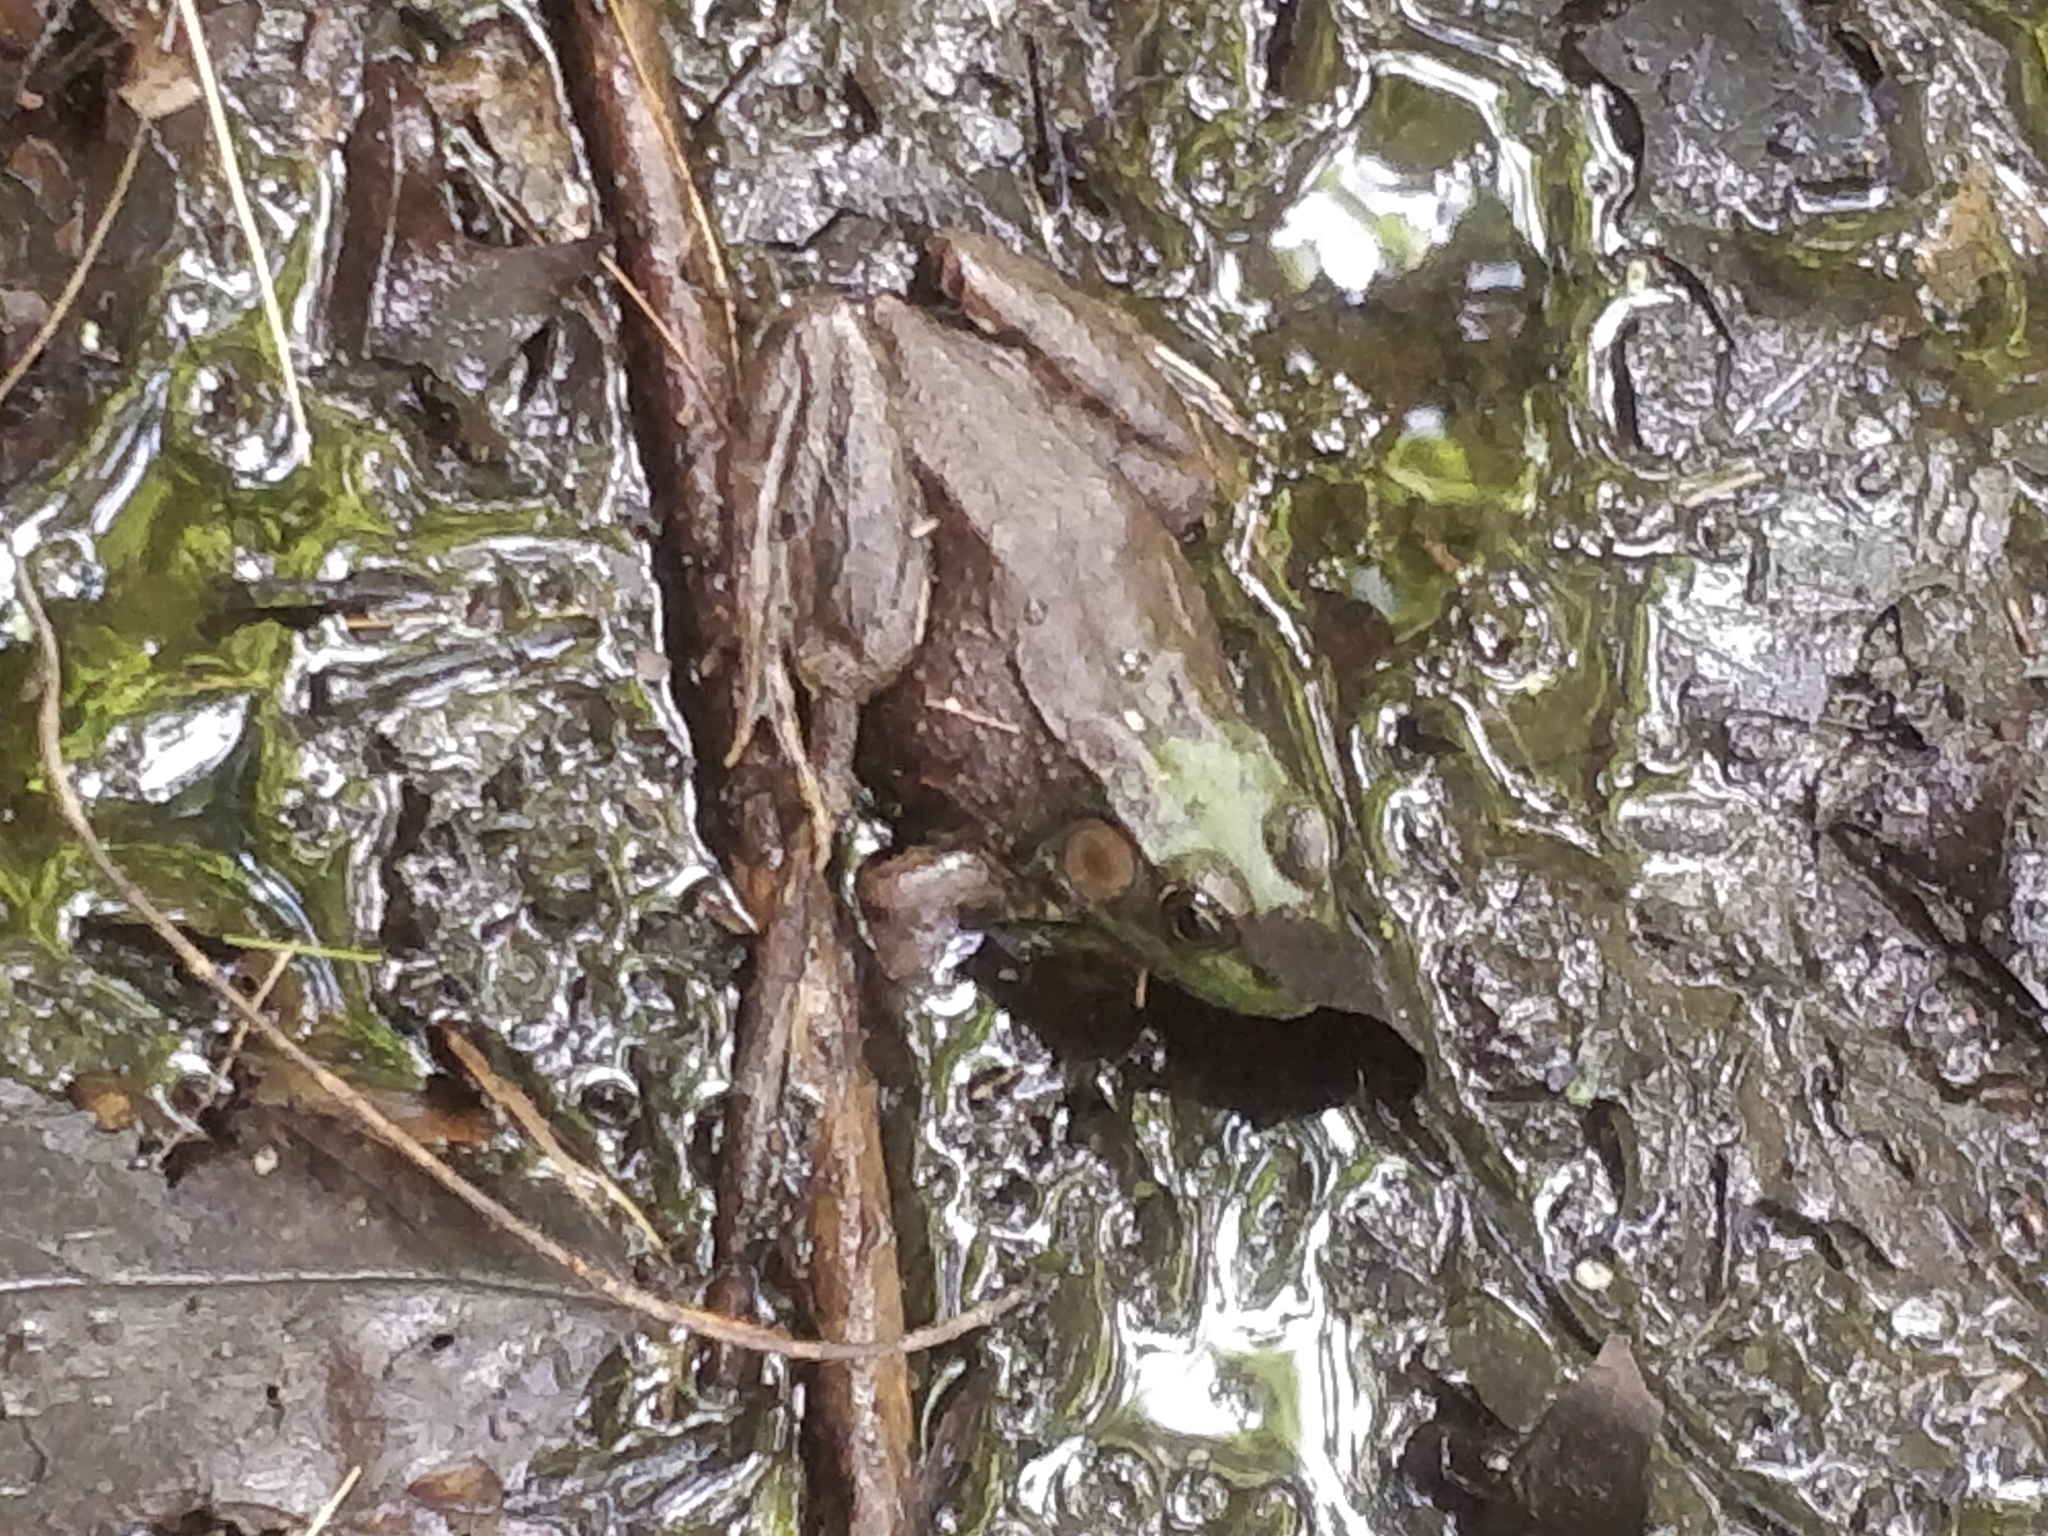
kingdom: Animalia
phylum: Chordata
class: Amphibia
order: Anura
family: Ranidae
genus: Lithobates
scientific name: Lithobates clamitans
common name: Green frog
